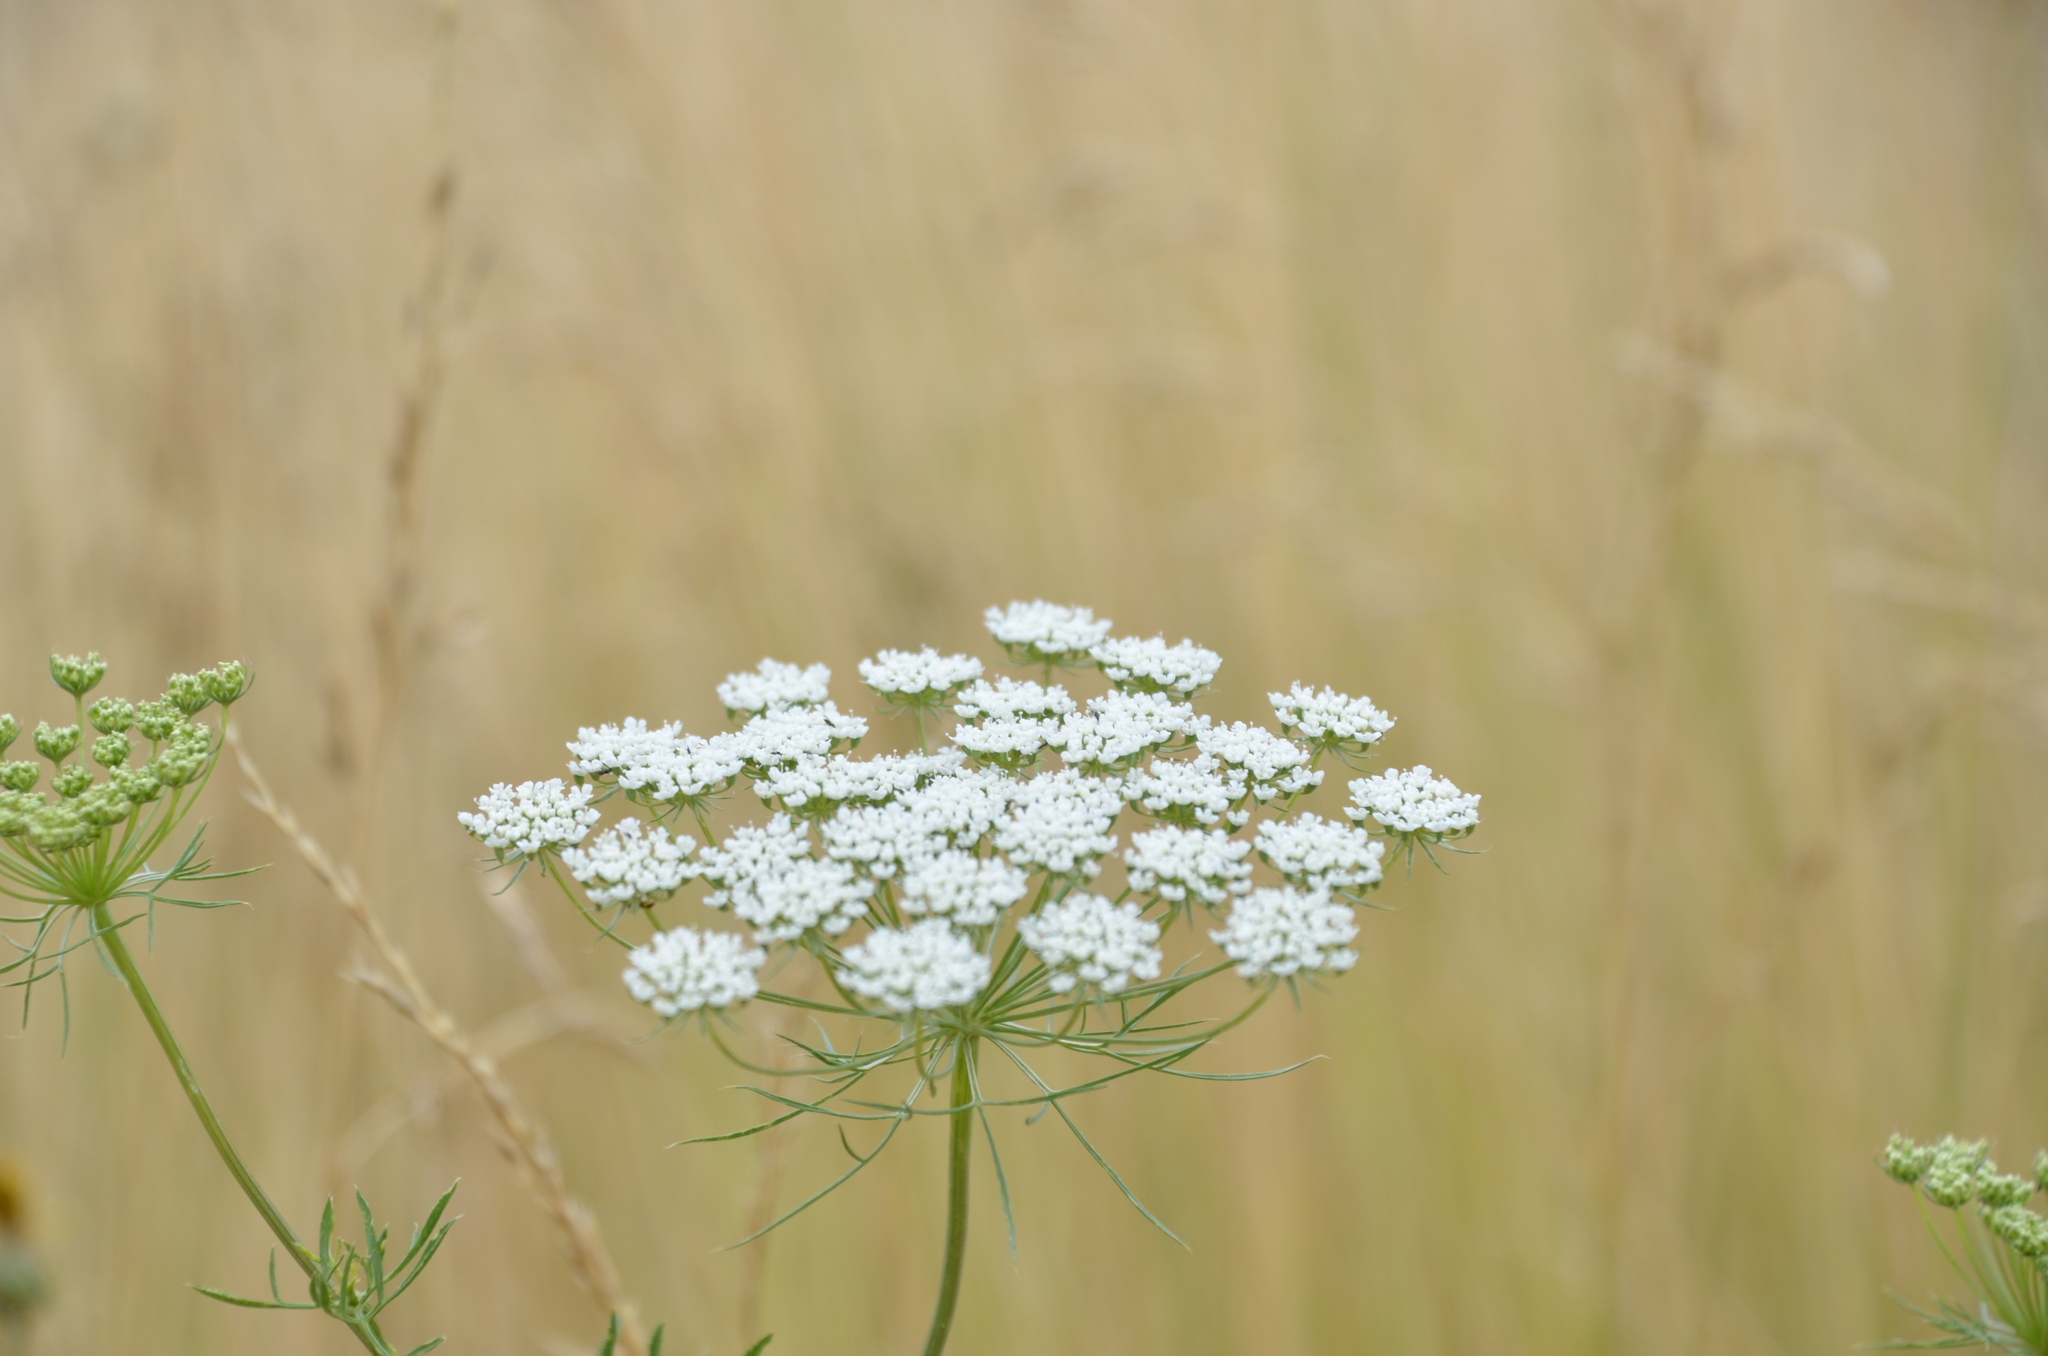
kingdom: Plantae
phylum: Tracheophyta
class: Magnoliopsida
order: Apiales
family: Apiaceae
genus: Ammi
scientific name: Ammi majus
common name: Bullwort
